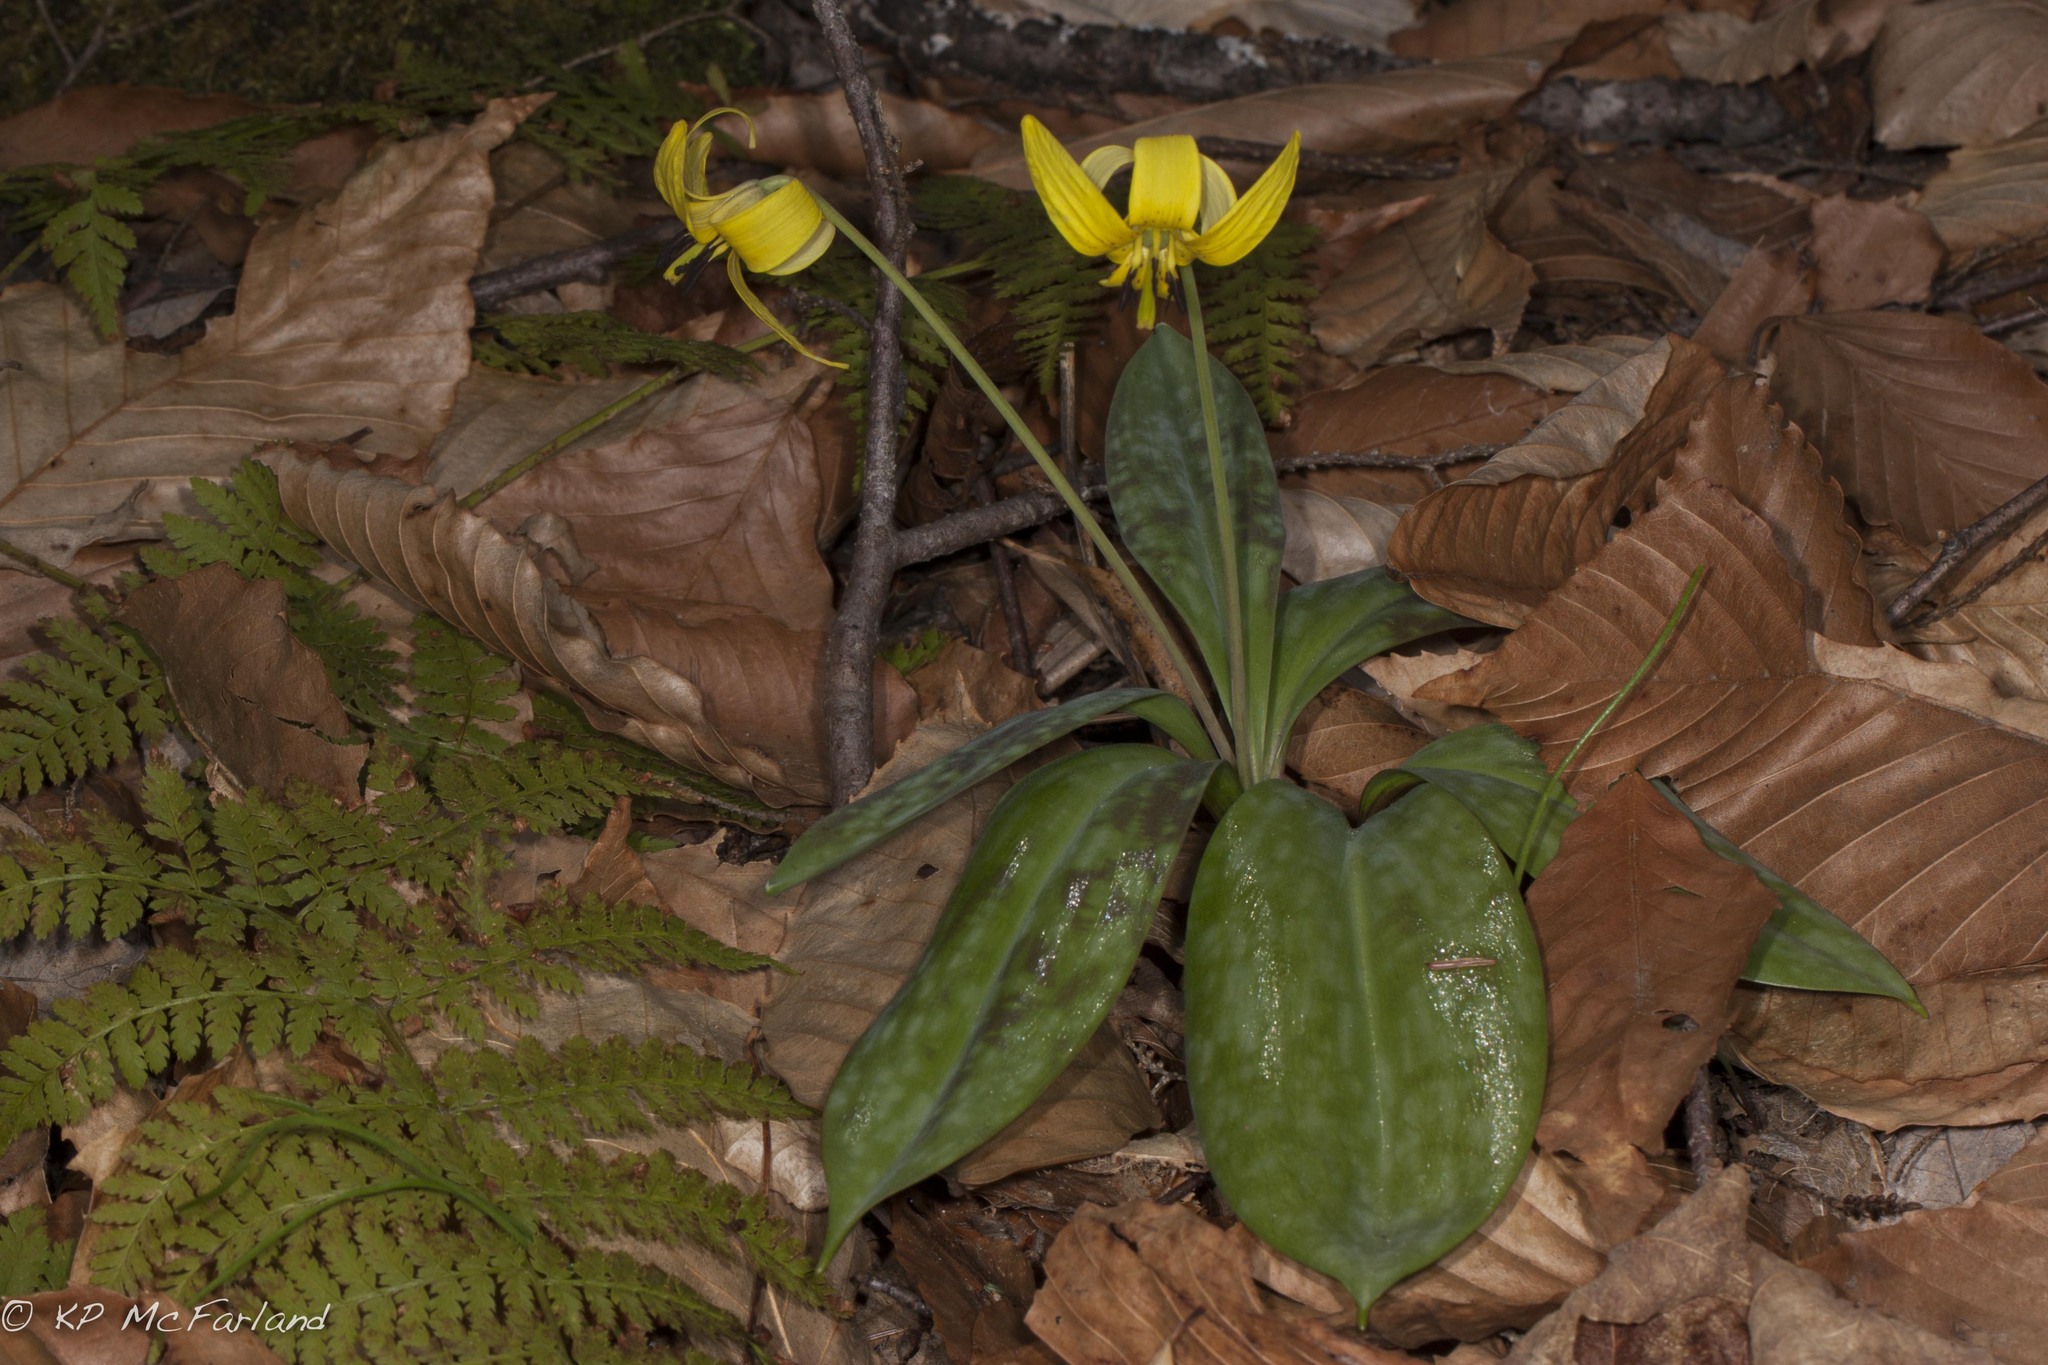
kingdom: Plantae
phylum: Tracheophyta
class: Liliopsida
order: Liliales
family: Liliaceae
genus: Erythronium
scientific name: Erythronium americanum
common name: Yellow adder's-tongue
